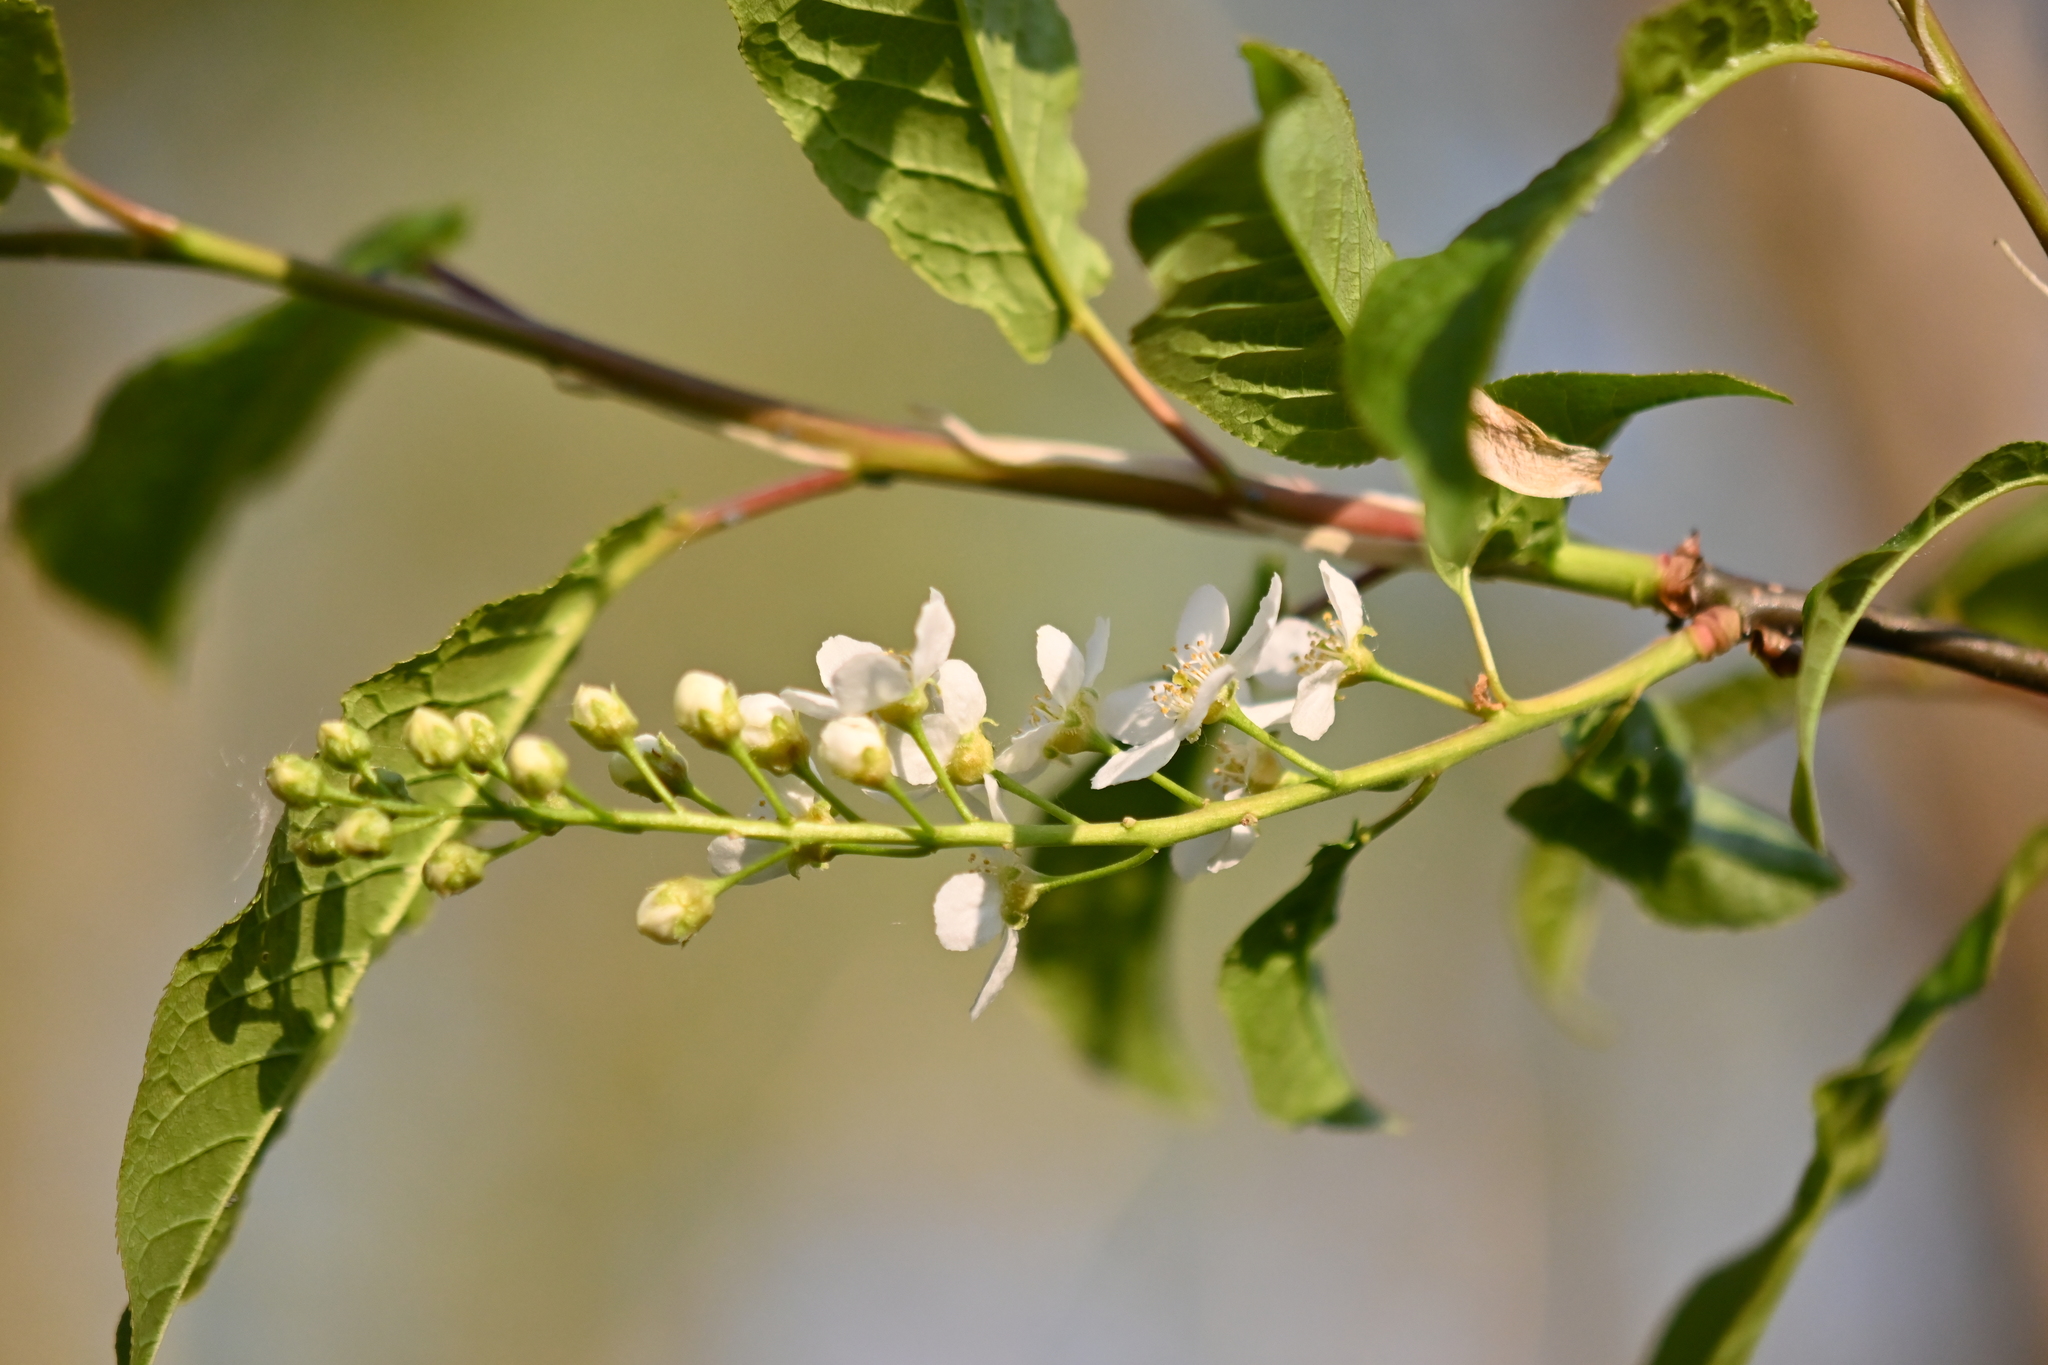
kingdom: Plantae
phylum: Tracheophyta
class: Magnoliopsida
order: Rosales
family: Rosaceae
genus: Prunus
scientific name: Prunus padus
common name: Bird cherry
